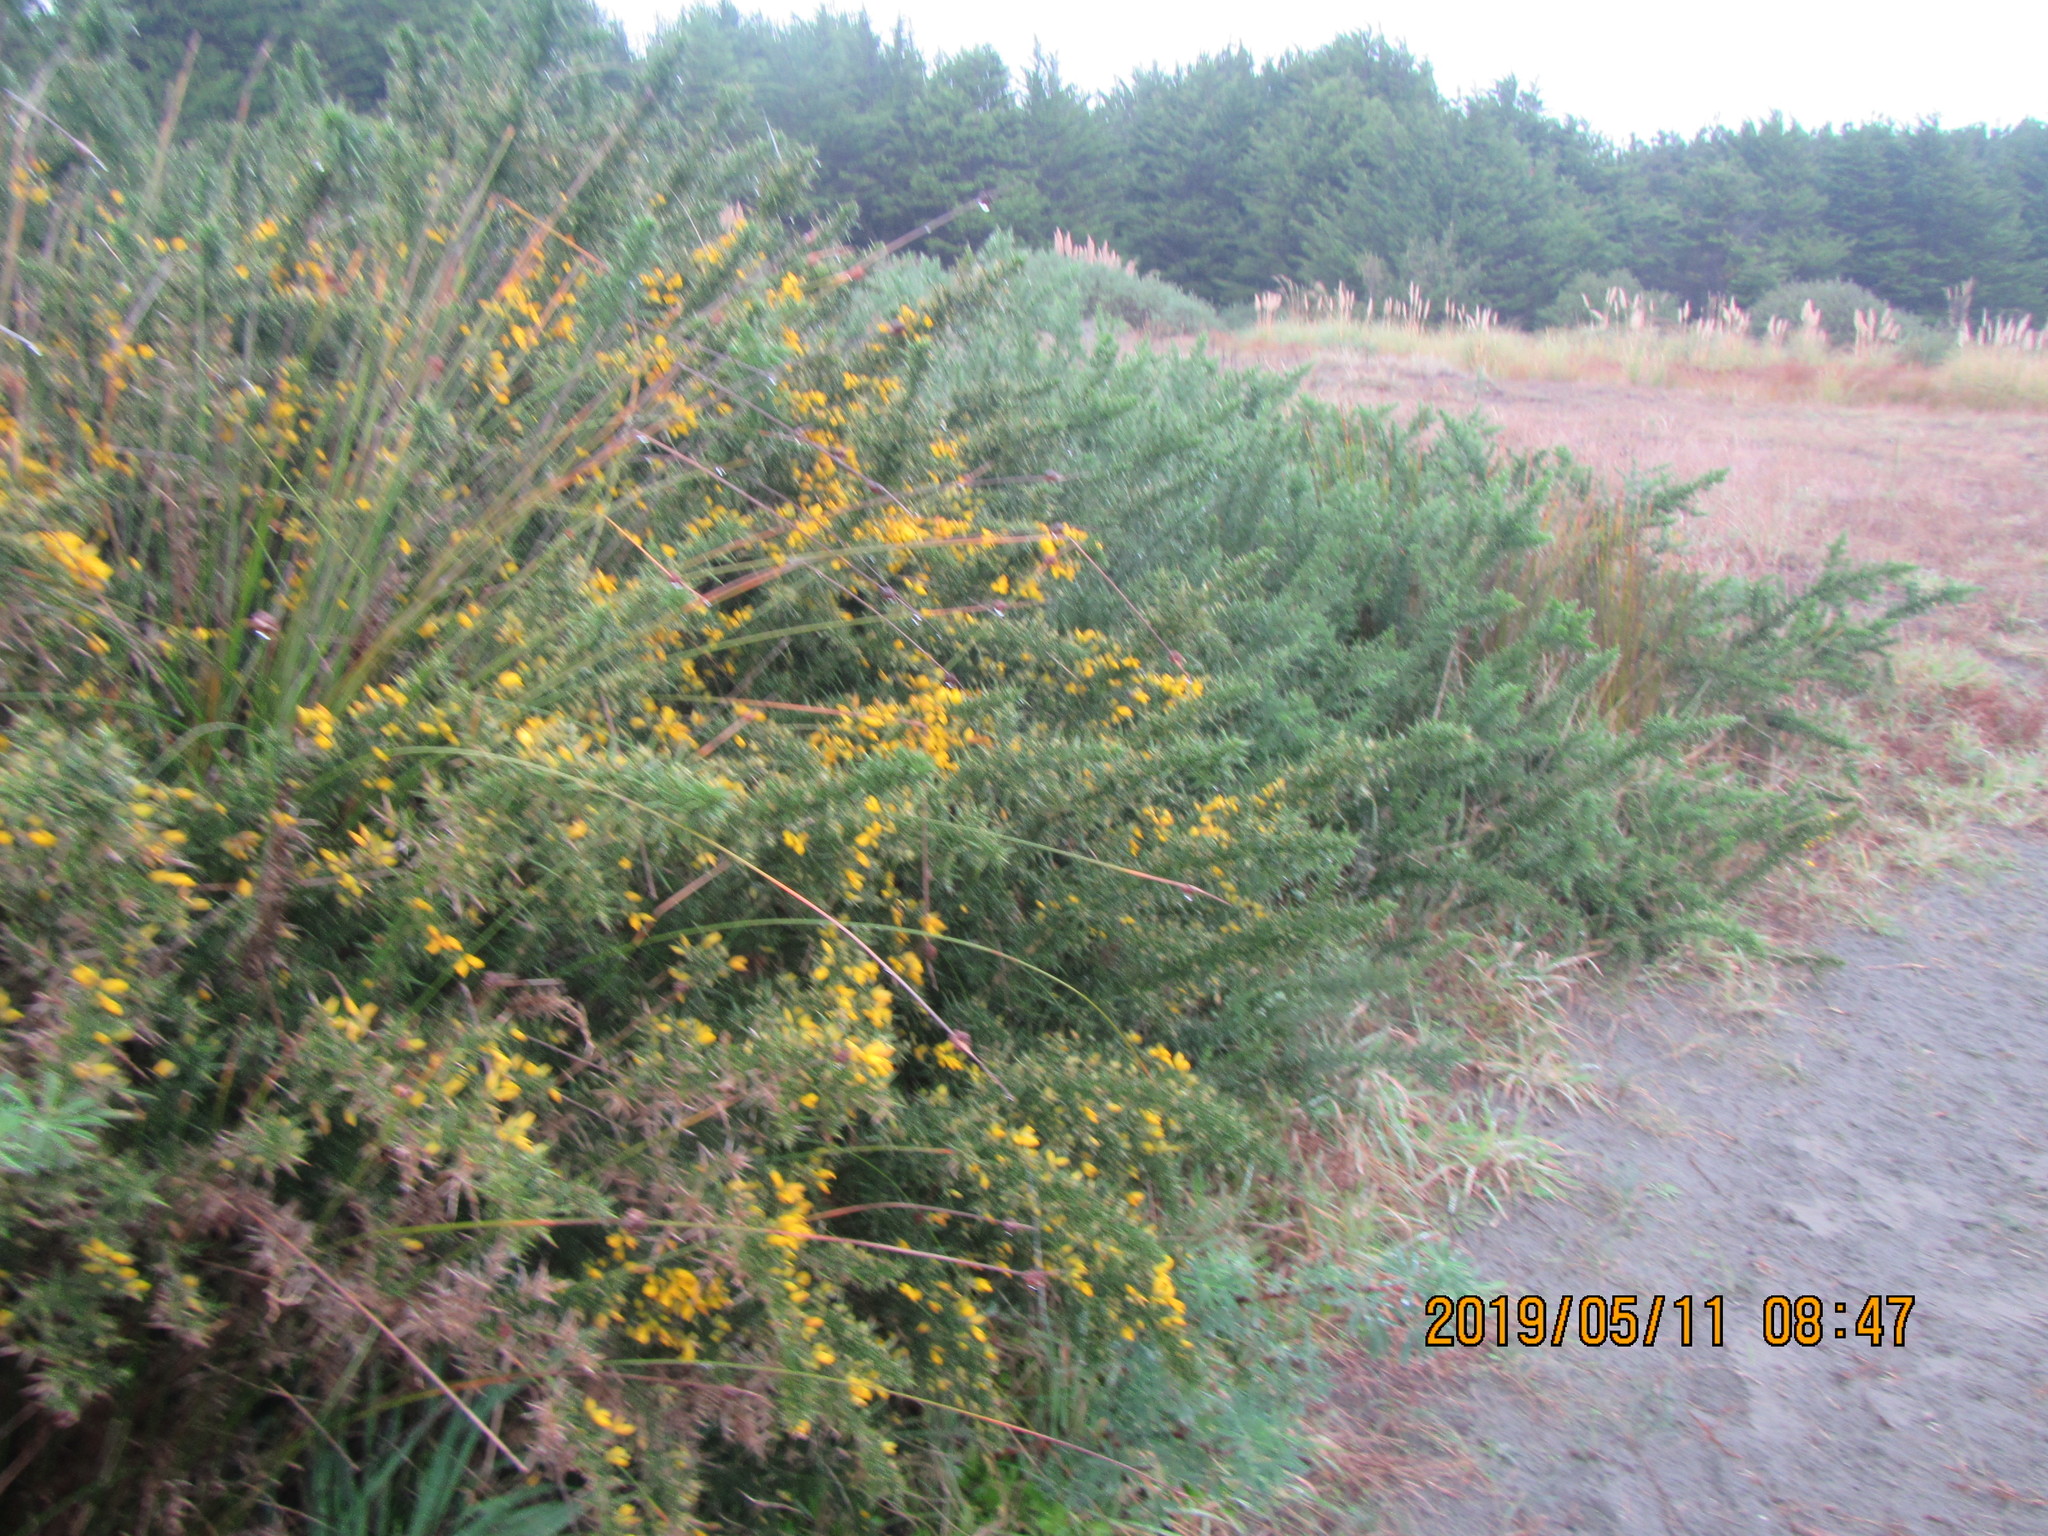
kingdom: Plantae
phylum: Tracheophyta
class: Magnoliopsida
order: Fabales
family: Fabaceae
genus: Ulex
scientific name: Ulex europaeus
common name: Common gorse
